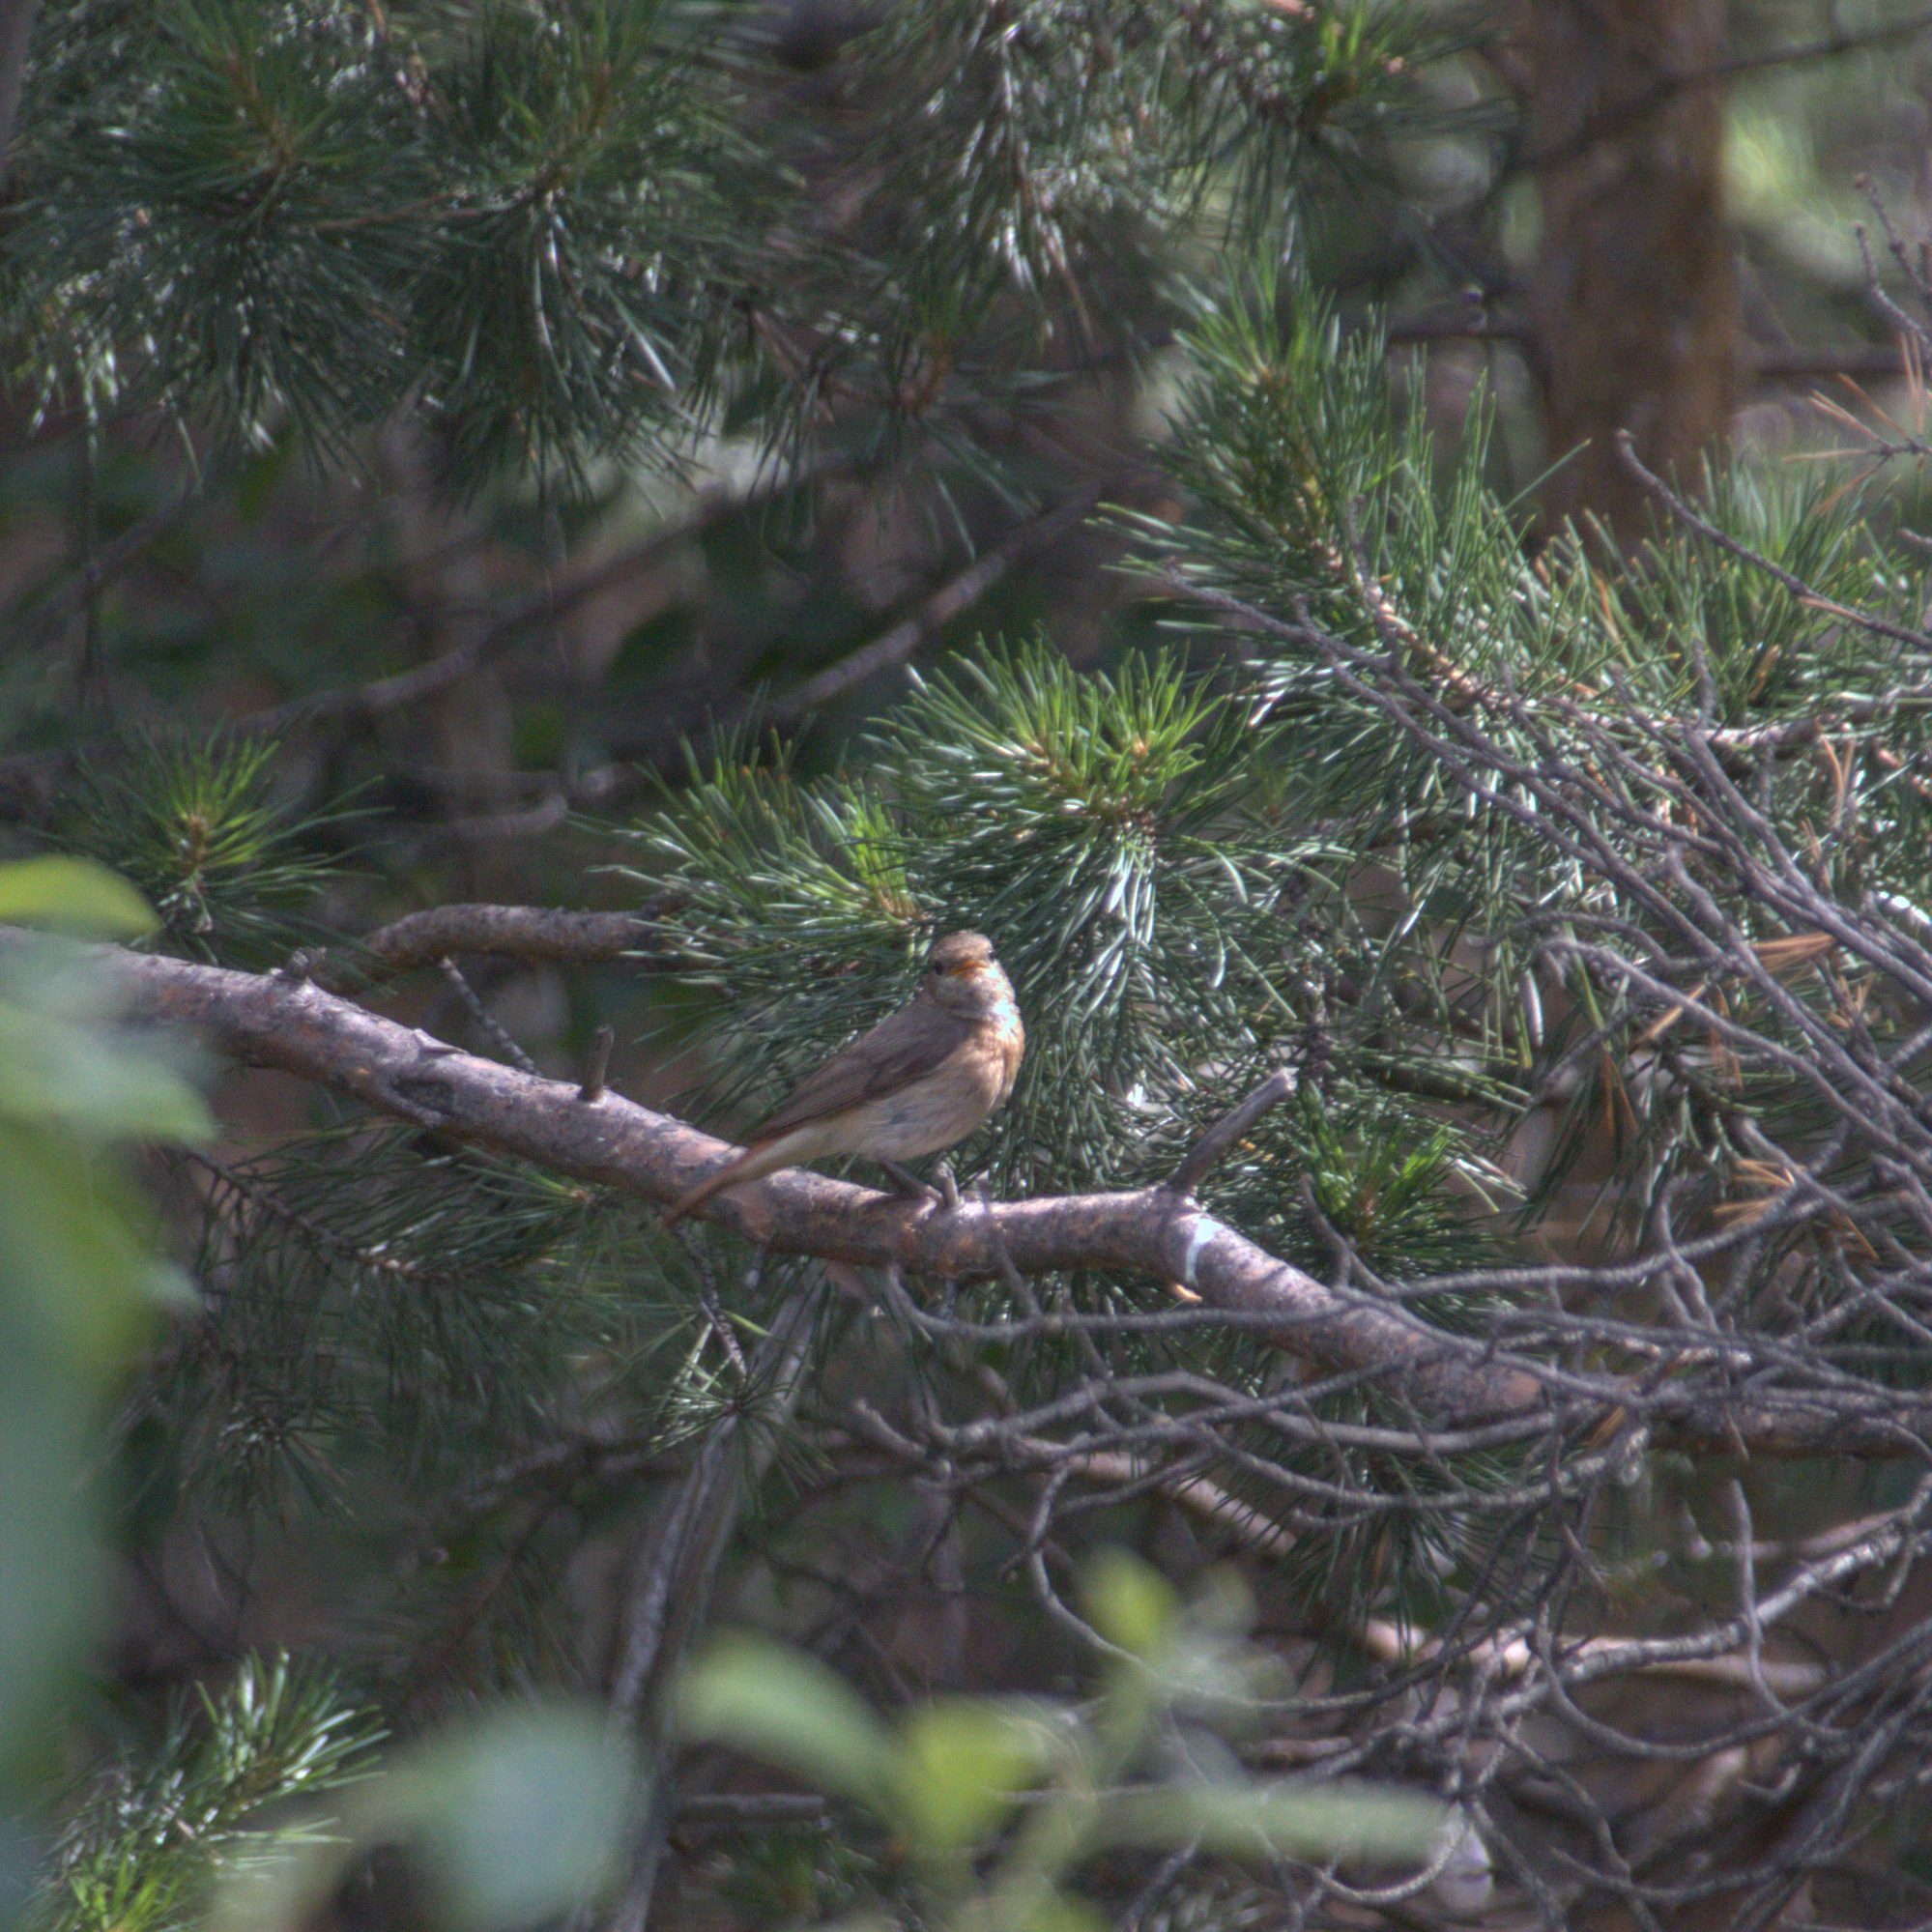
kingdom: Animalia
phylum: Chordata
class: Aves
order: Passeriformes
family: Muscicapidae
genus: Phoenicurus
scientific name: Phoenicurus phoenicurus
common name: Common redstart
